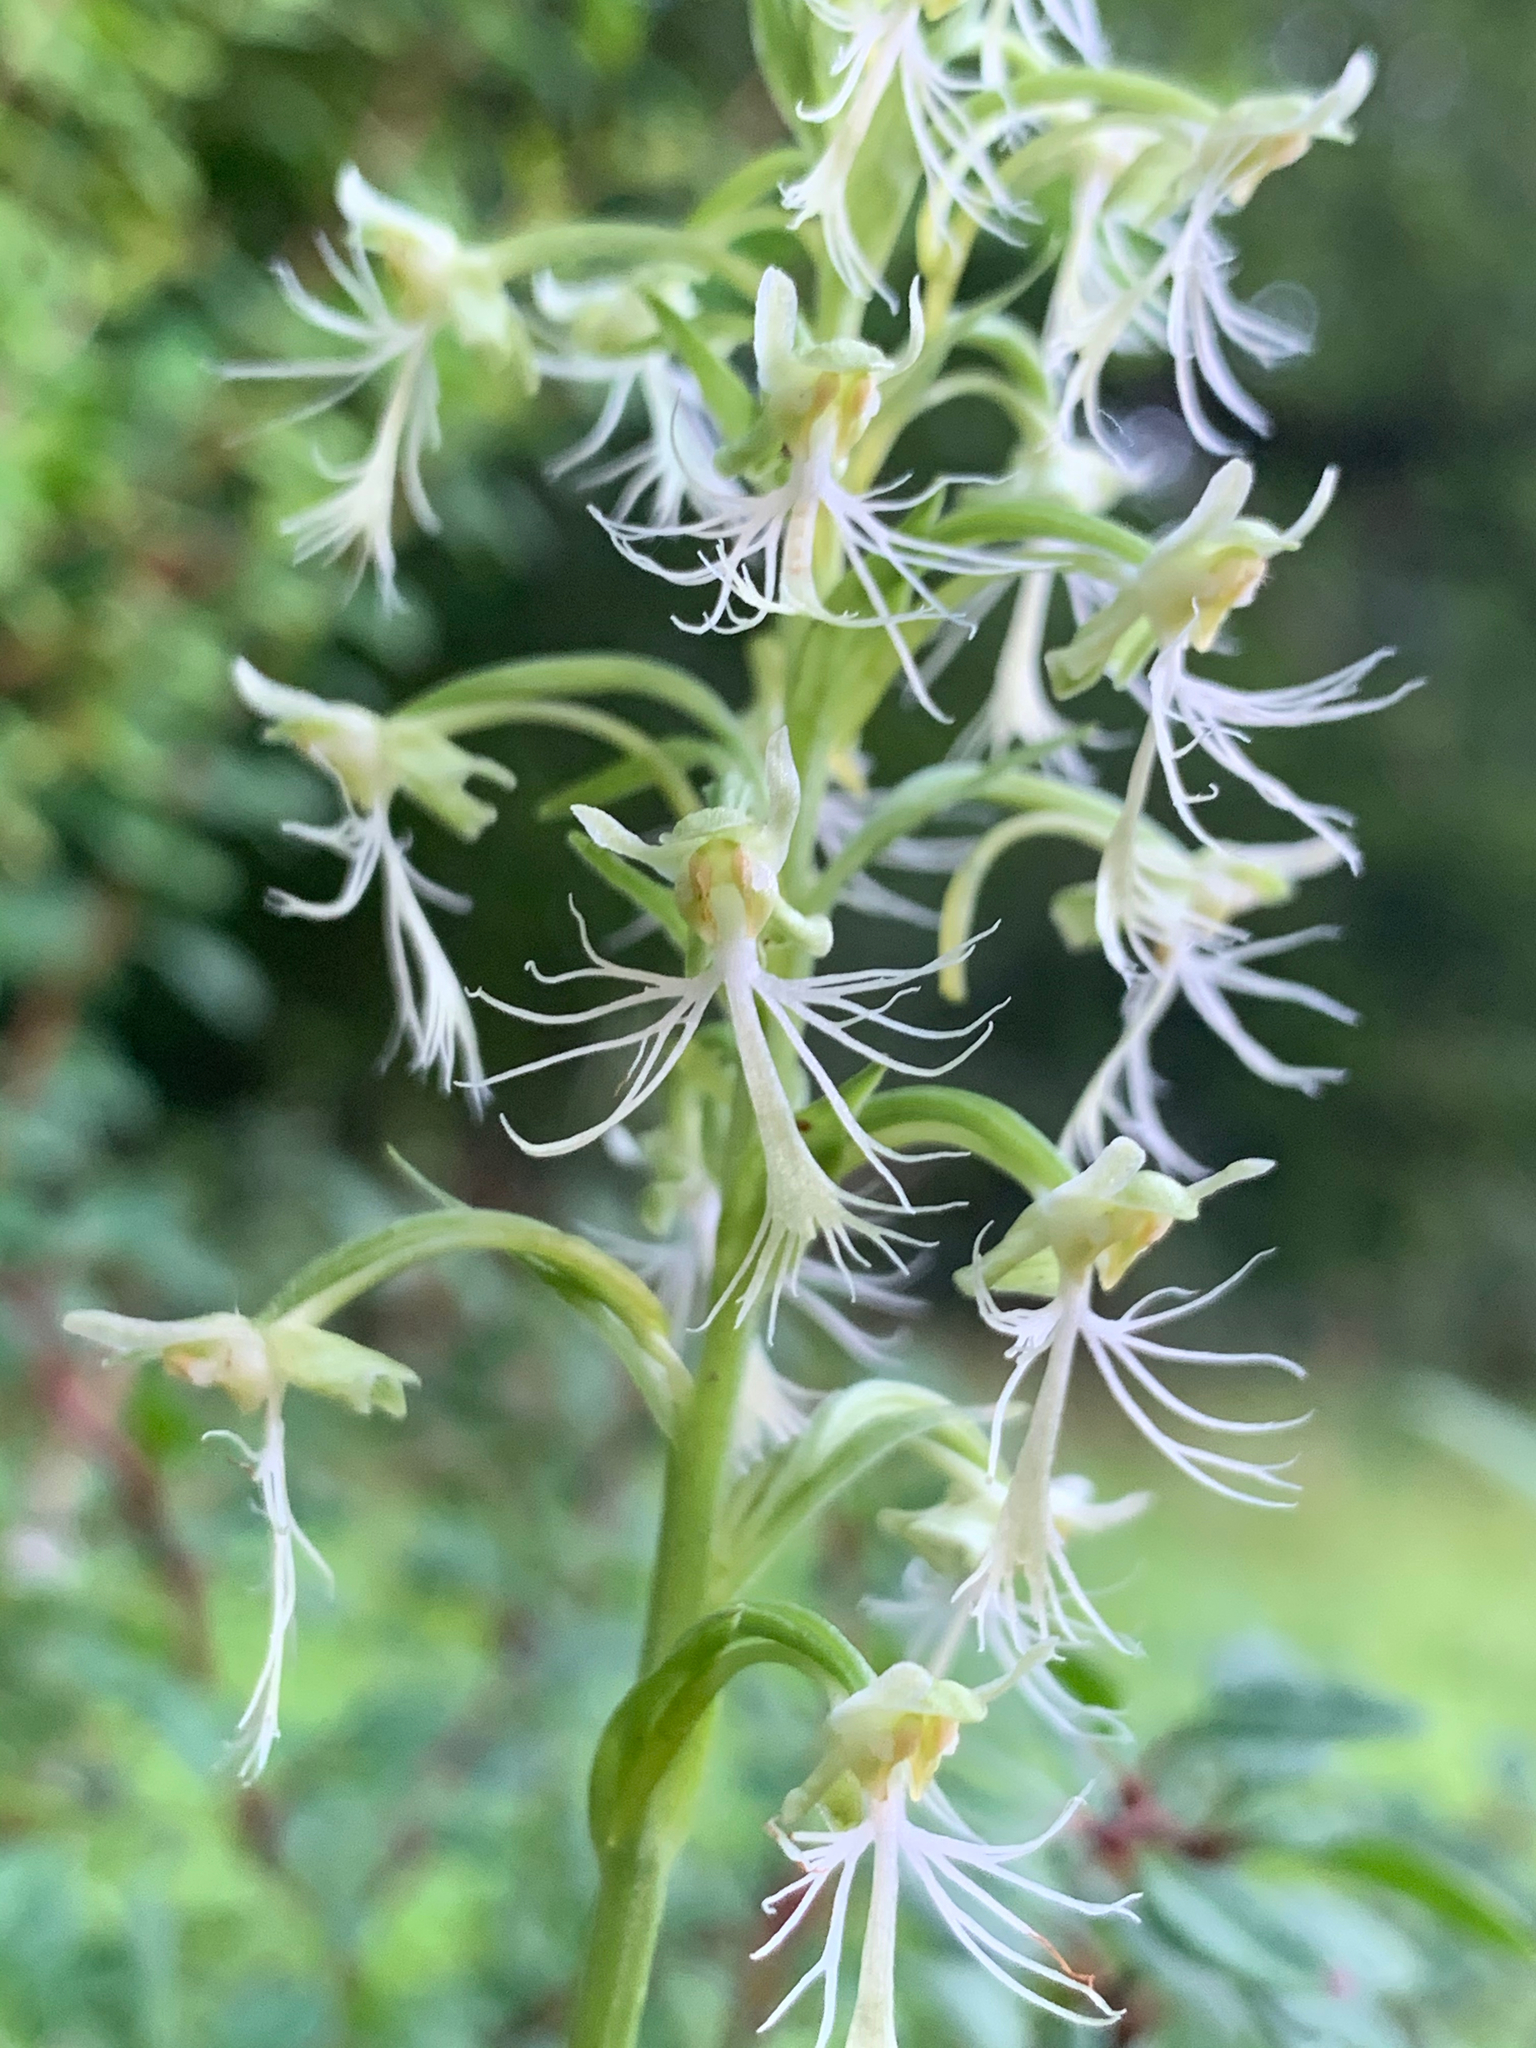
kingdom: Plantae
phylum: Tracheophyta
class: Liliopsida
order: Asparagales
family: Orchidaceae
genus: Platanthera
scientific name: Platanthera lacera
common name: Green fringed orchid
